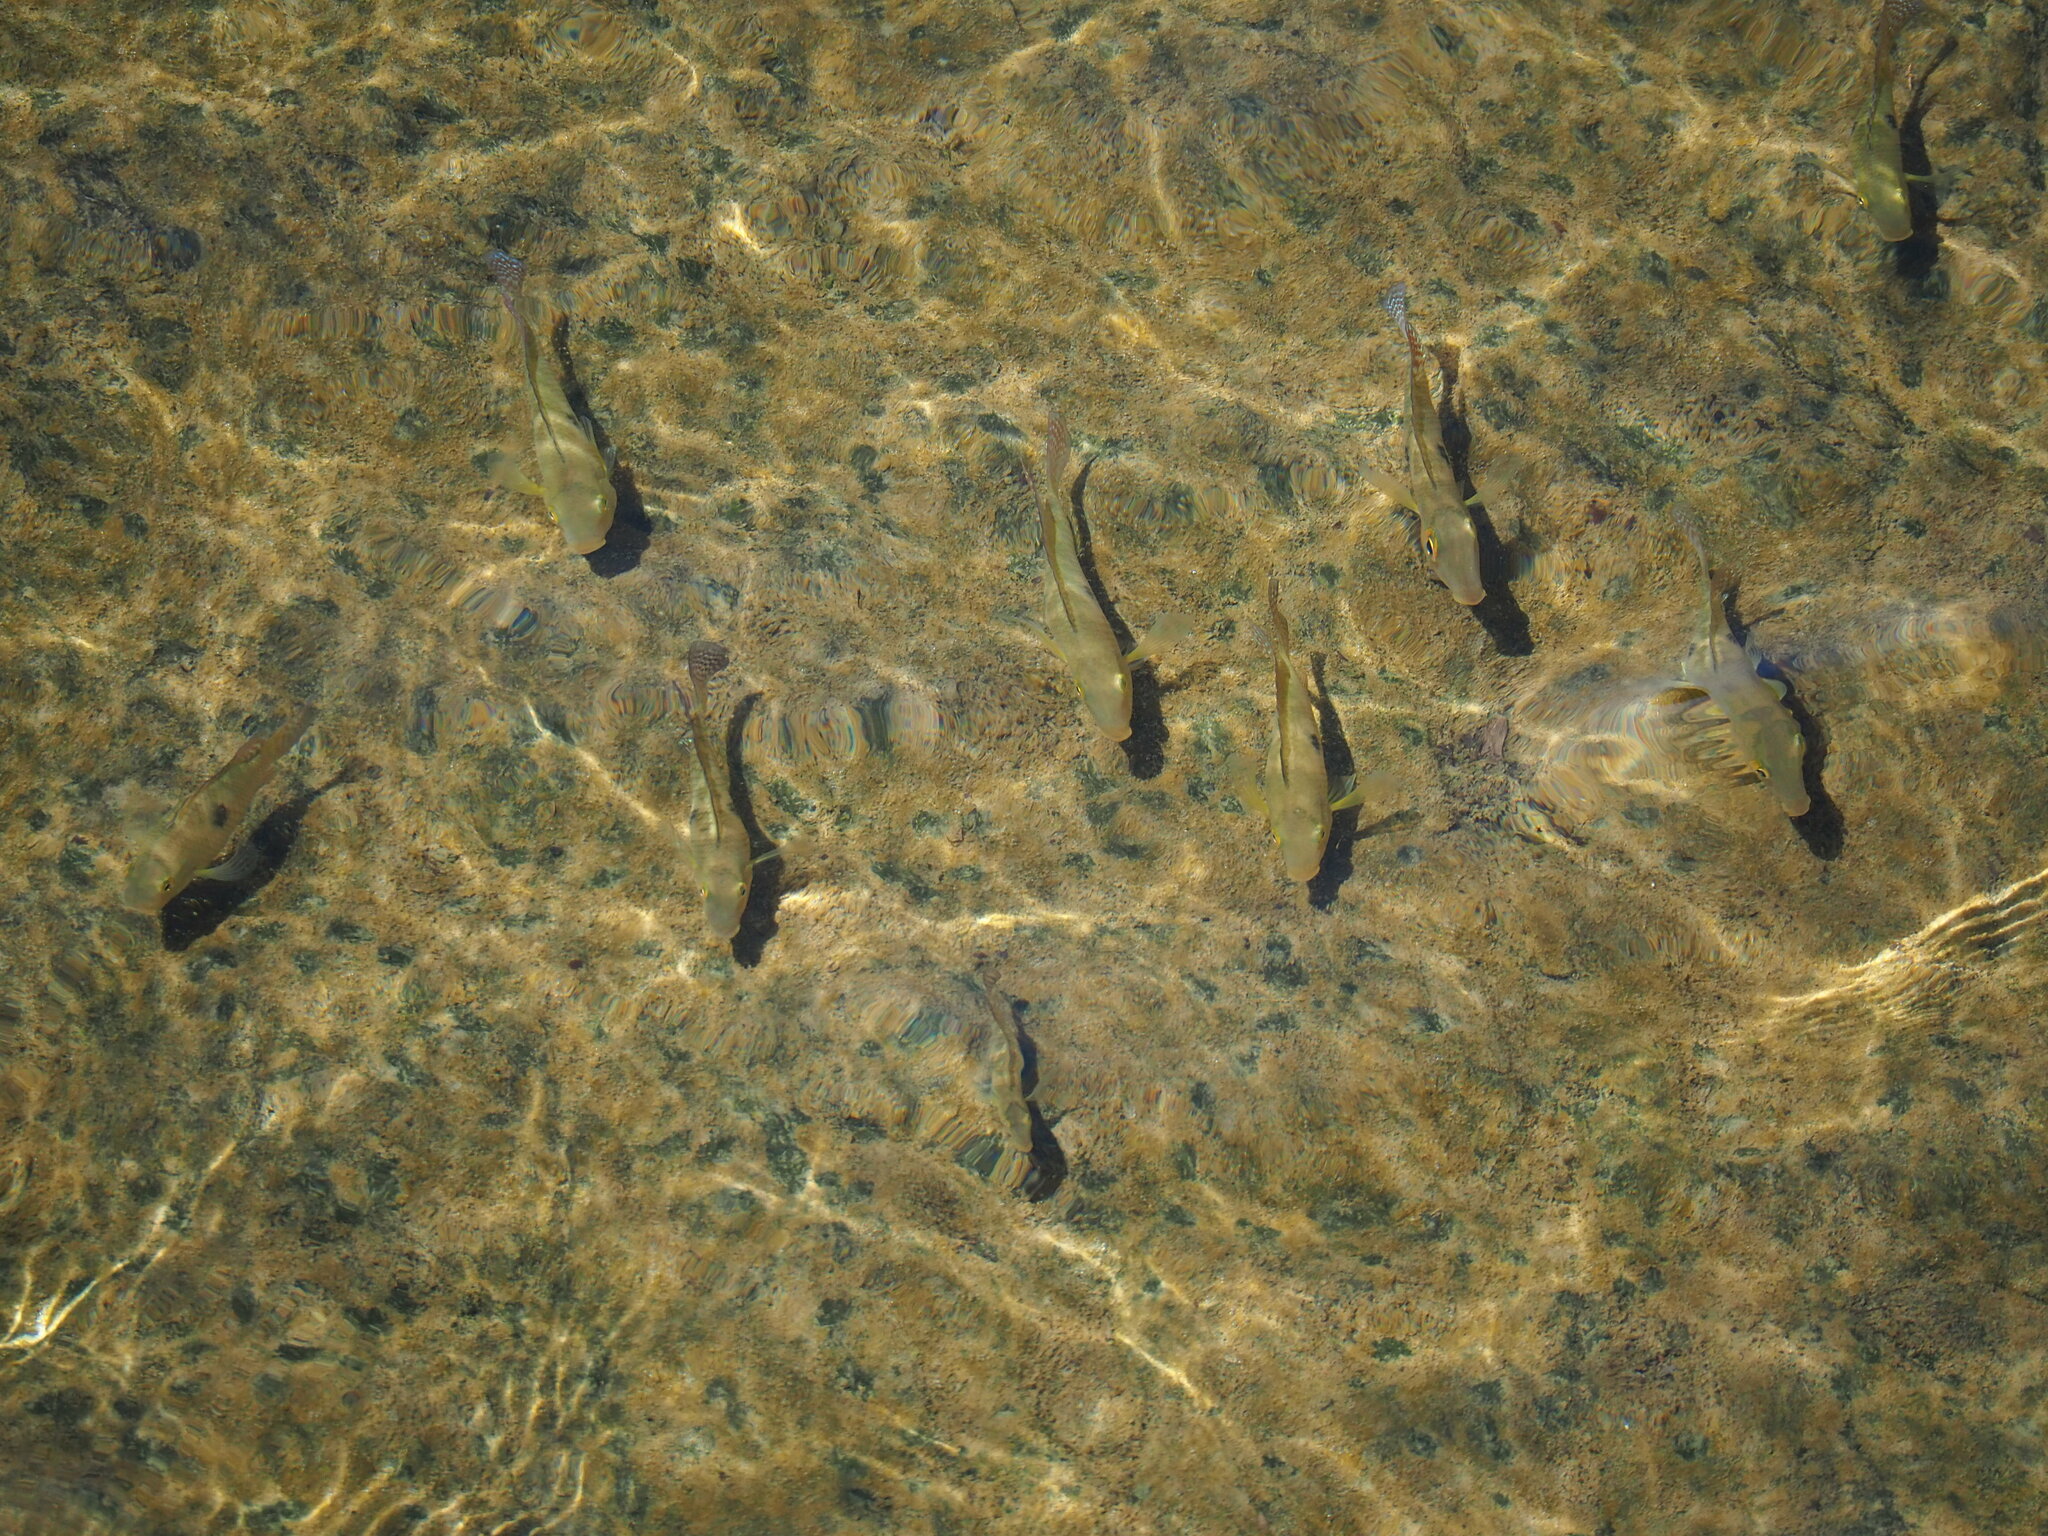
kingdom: Animalia
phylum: Chordata
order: Perciformes
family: Cichlidae
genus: Geophagus
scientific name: Geophagus brasiliensis
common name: Braziliensis
